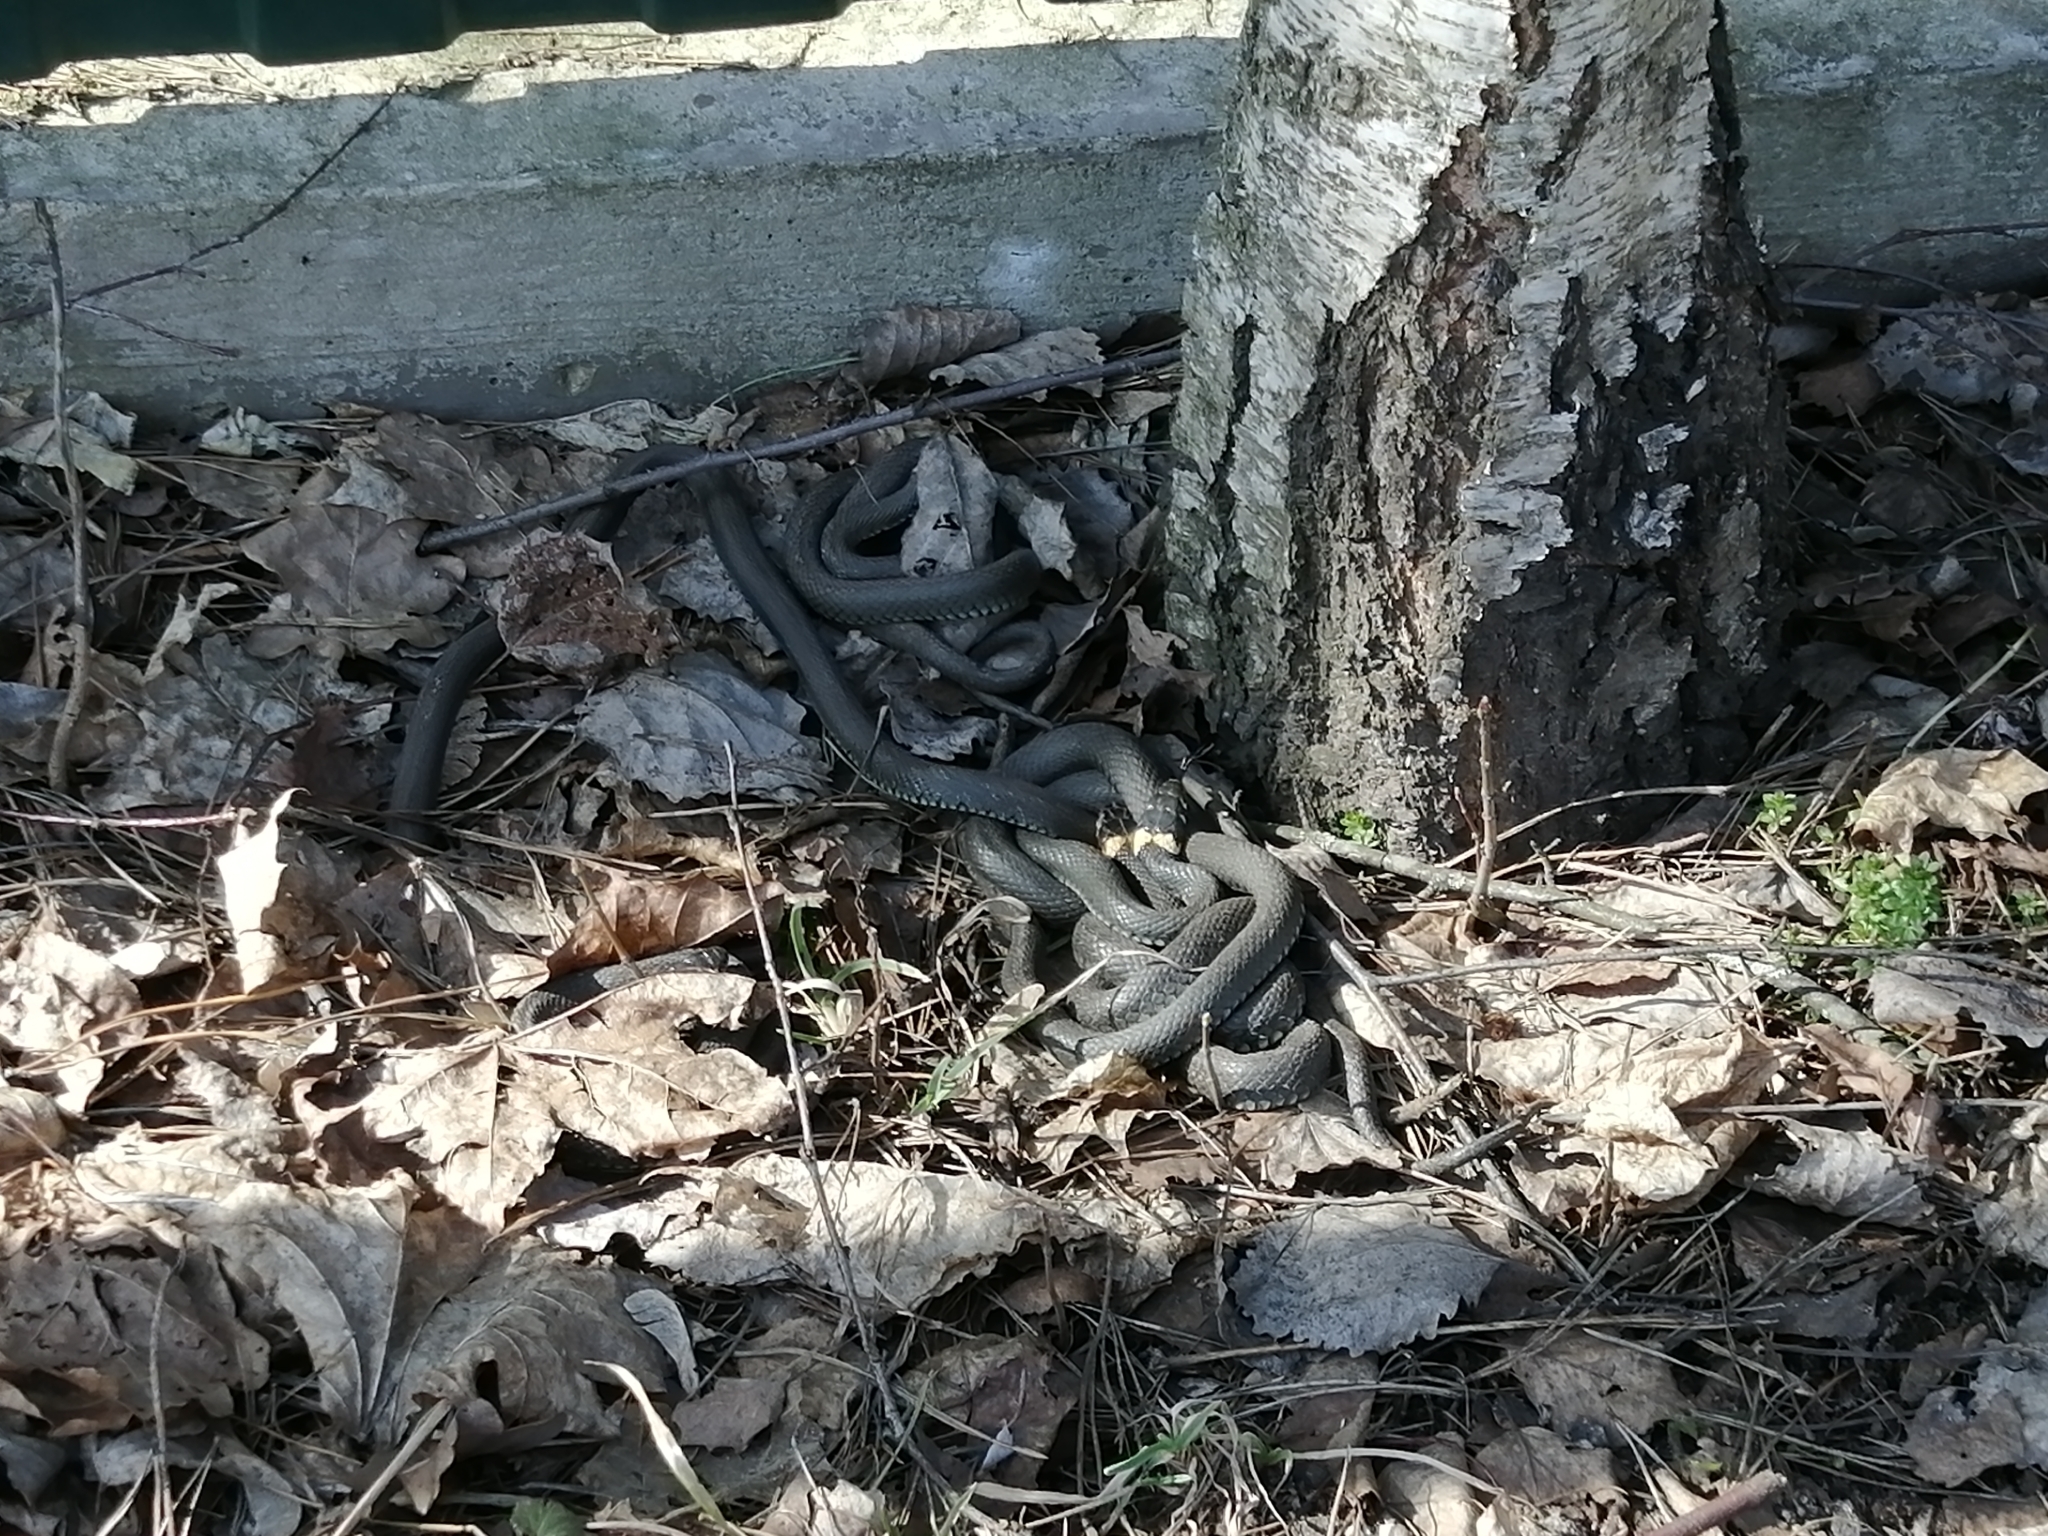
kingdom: Animalia
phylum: Chordata
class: Squamata
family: Colubridae
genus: Natrix
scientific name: Natrix natrix
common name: Grass snake
